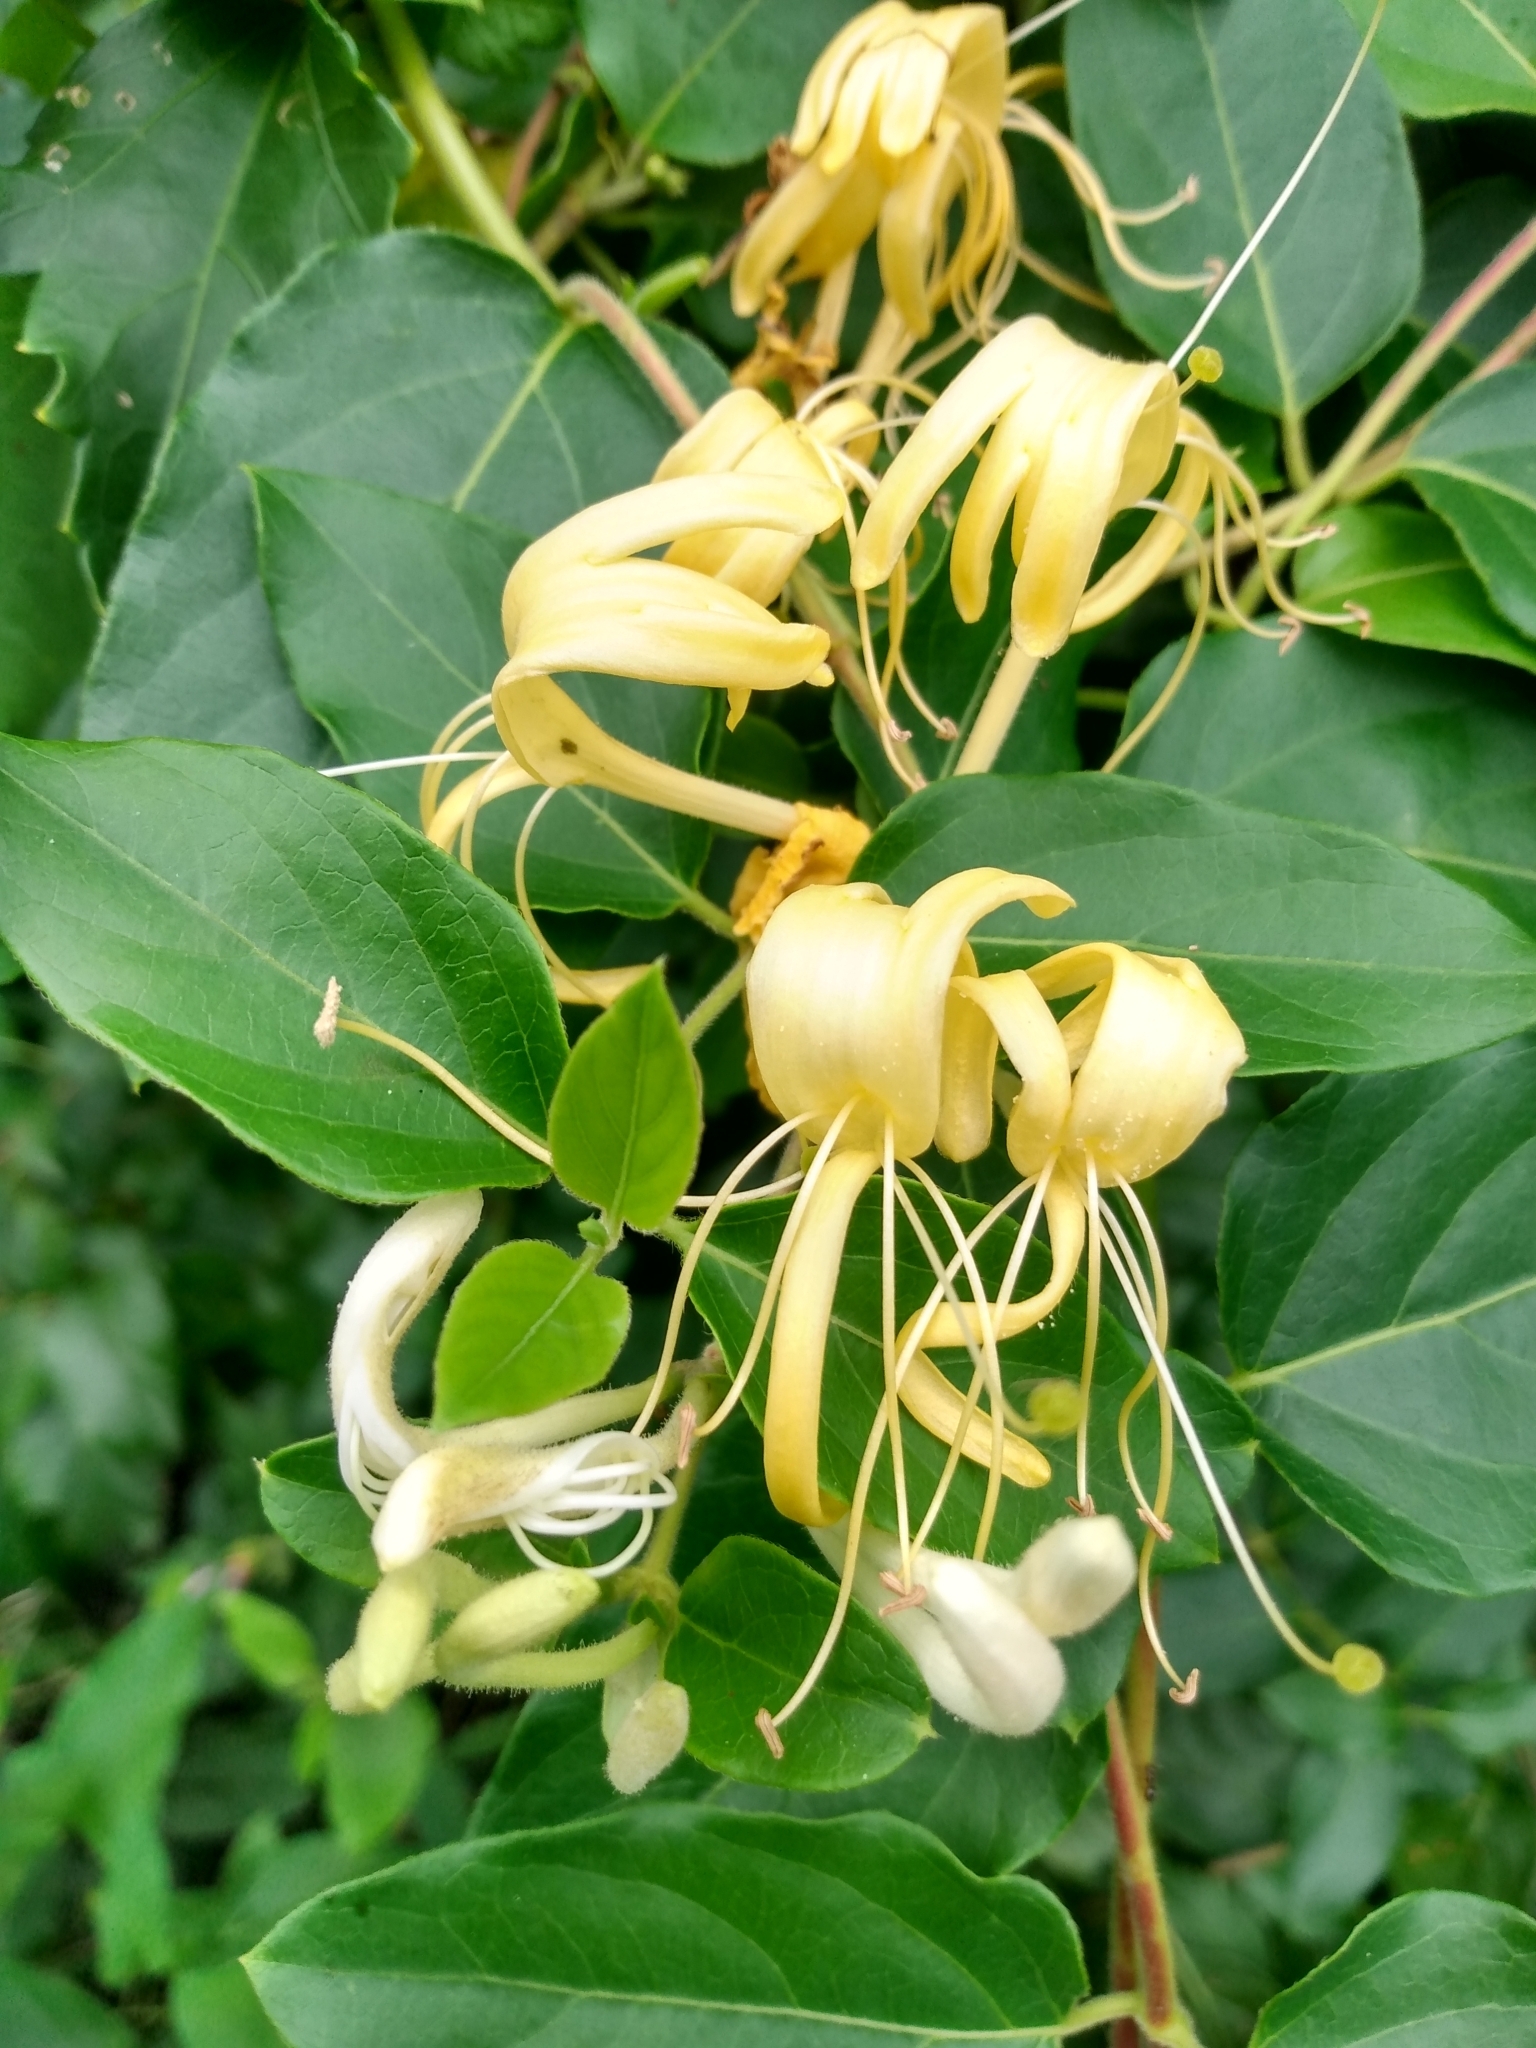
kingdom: Plantae
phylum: Tracheophyta
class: Magnoliopsida
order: Dipsacales
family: Caprifoliaceae
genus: Lonicera
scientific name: Lonicera japonica
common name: Japanese honeysuckle
